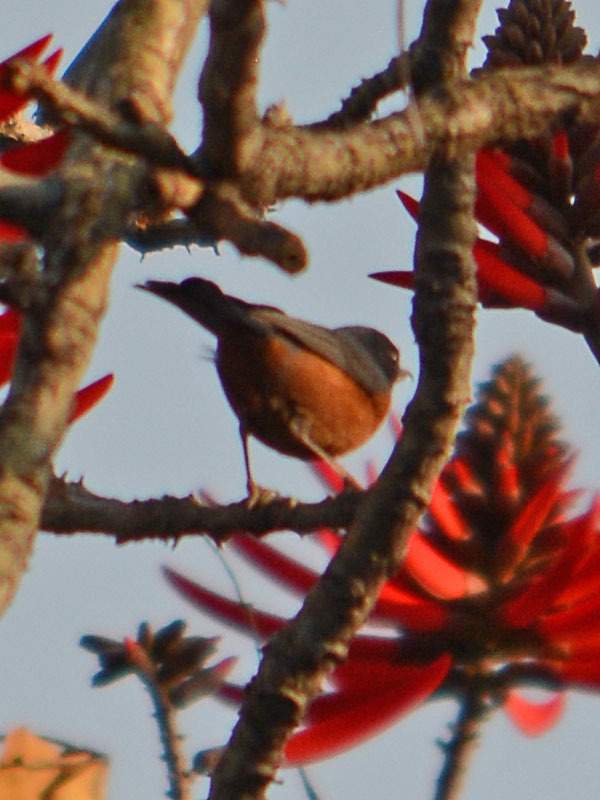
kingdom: Animalia
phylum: Chordata
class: Aves
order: Passeriformes
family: Thraupidae
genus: Diglossa
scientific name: Diglossa baritula
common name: Cinnamon-bellied flowerpiercer
